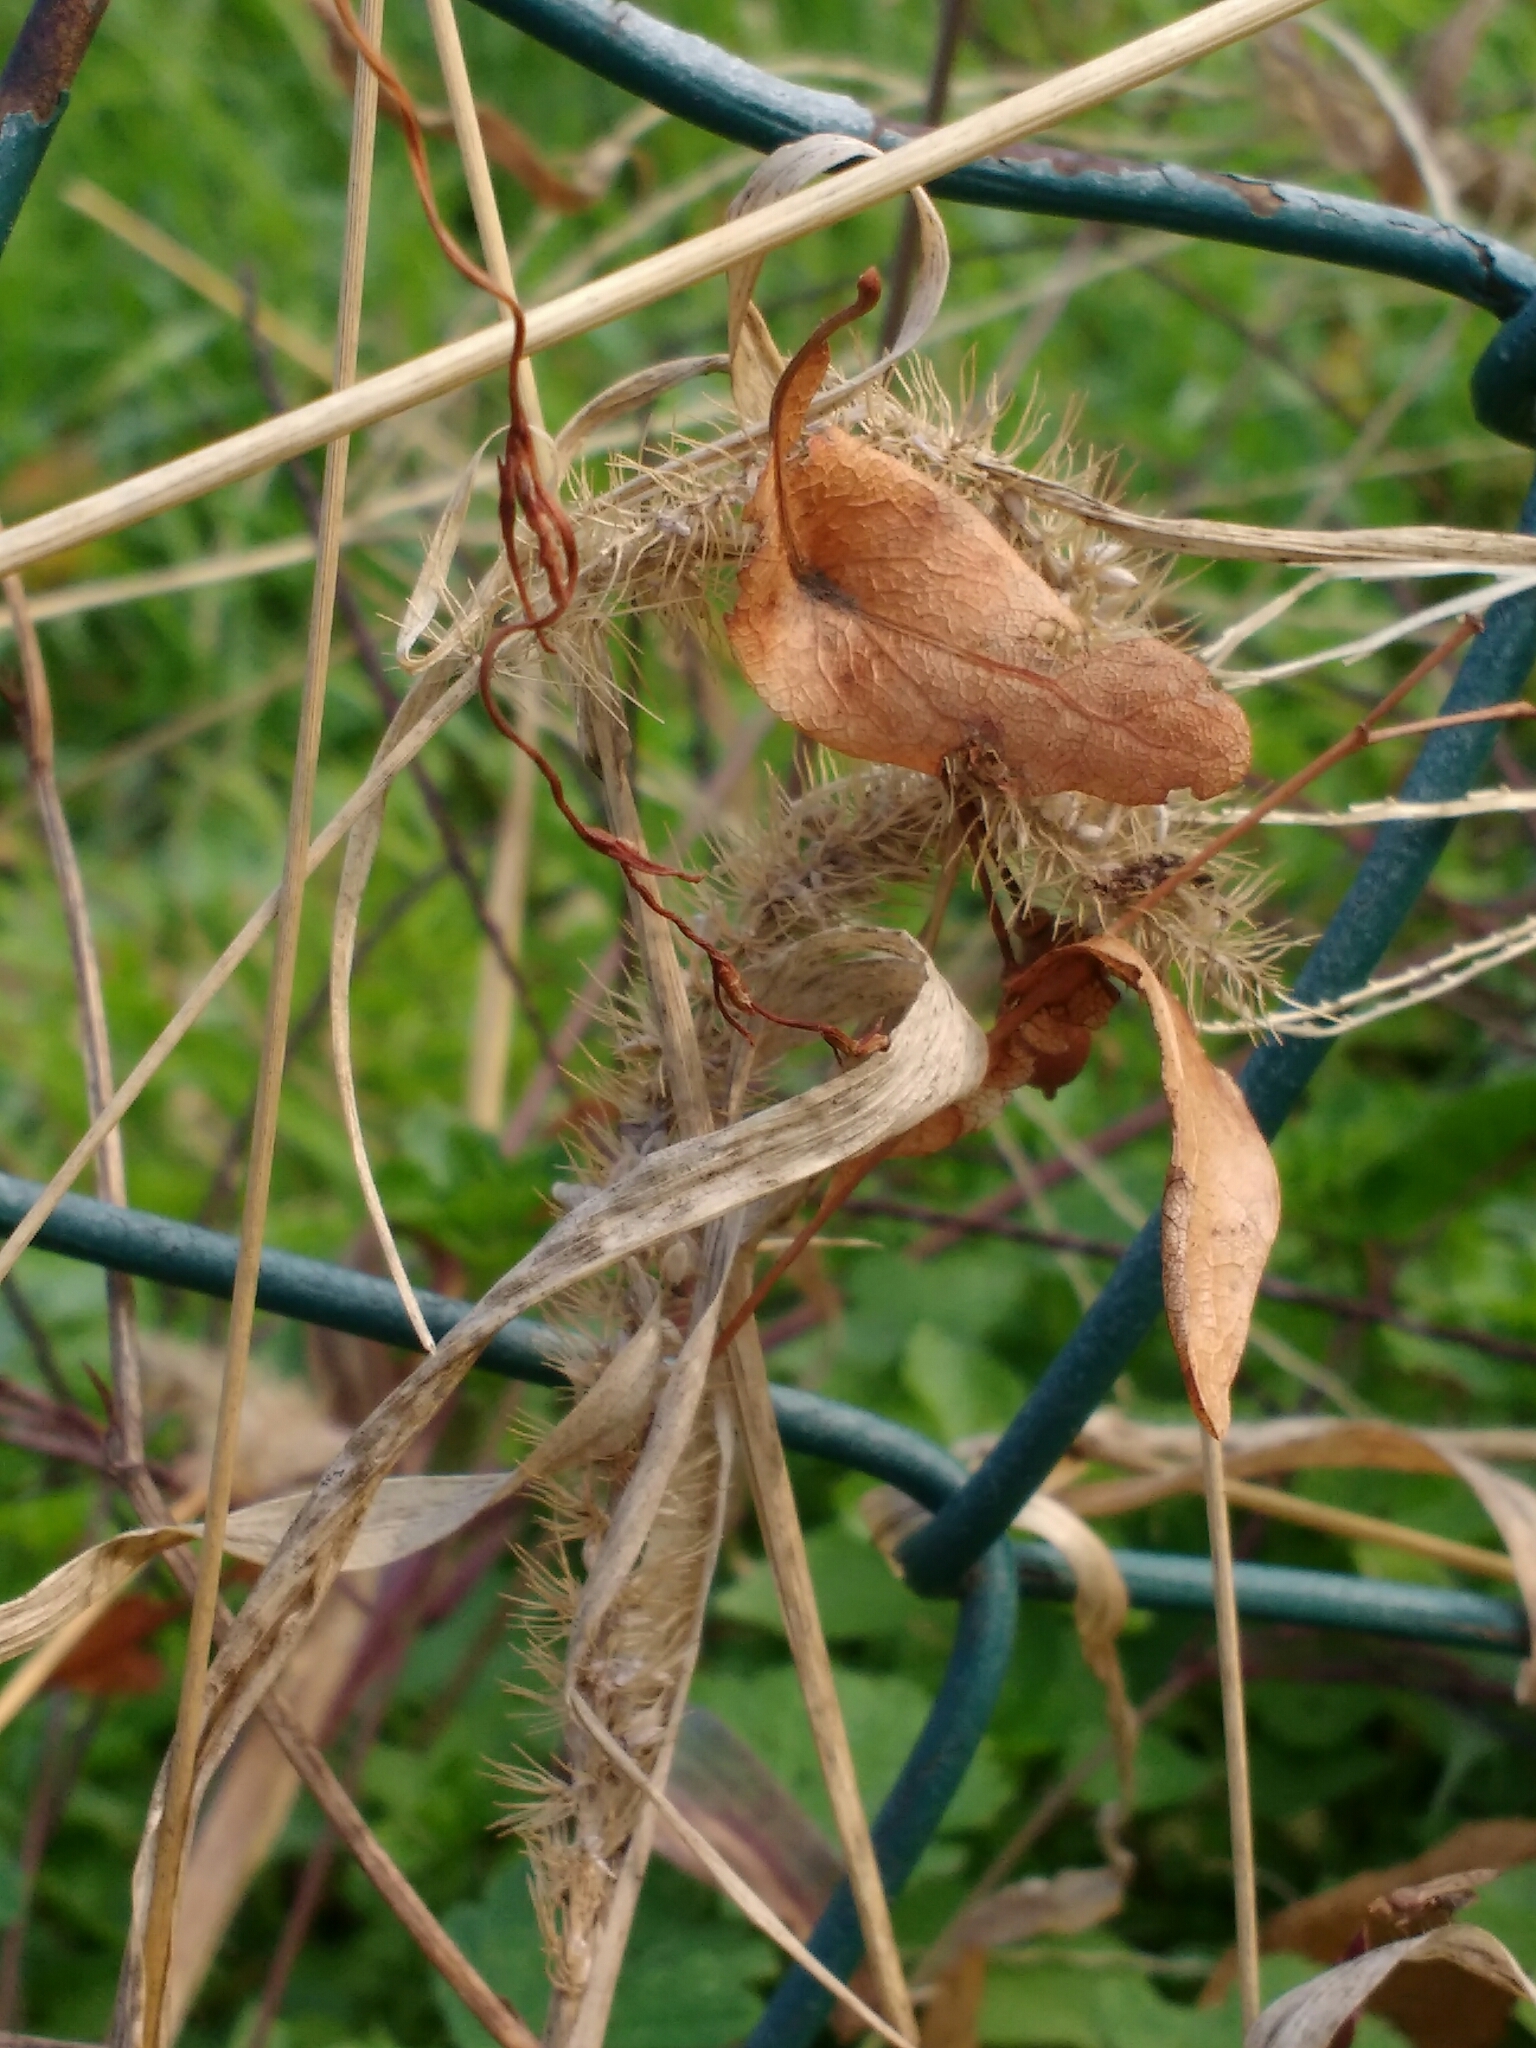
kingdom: Plantae
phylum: Tracheophyta
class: Liliopsida
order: Poales
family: Poaceae
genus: Setaria
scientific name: Setaria verticillata
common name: Hooked bristlegrass
